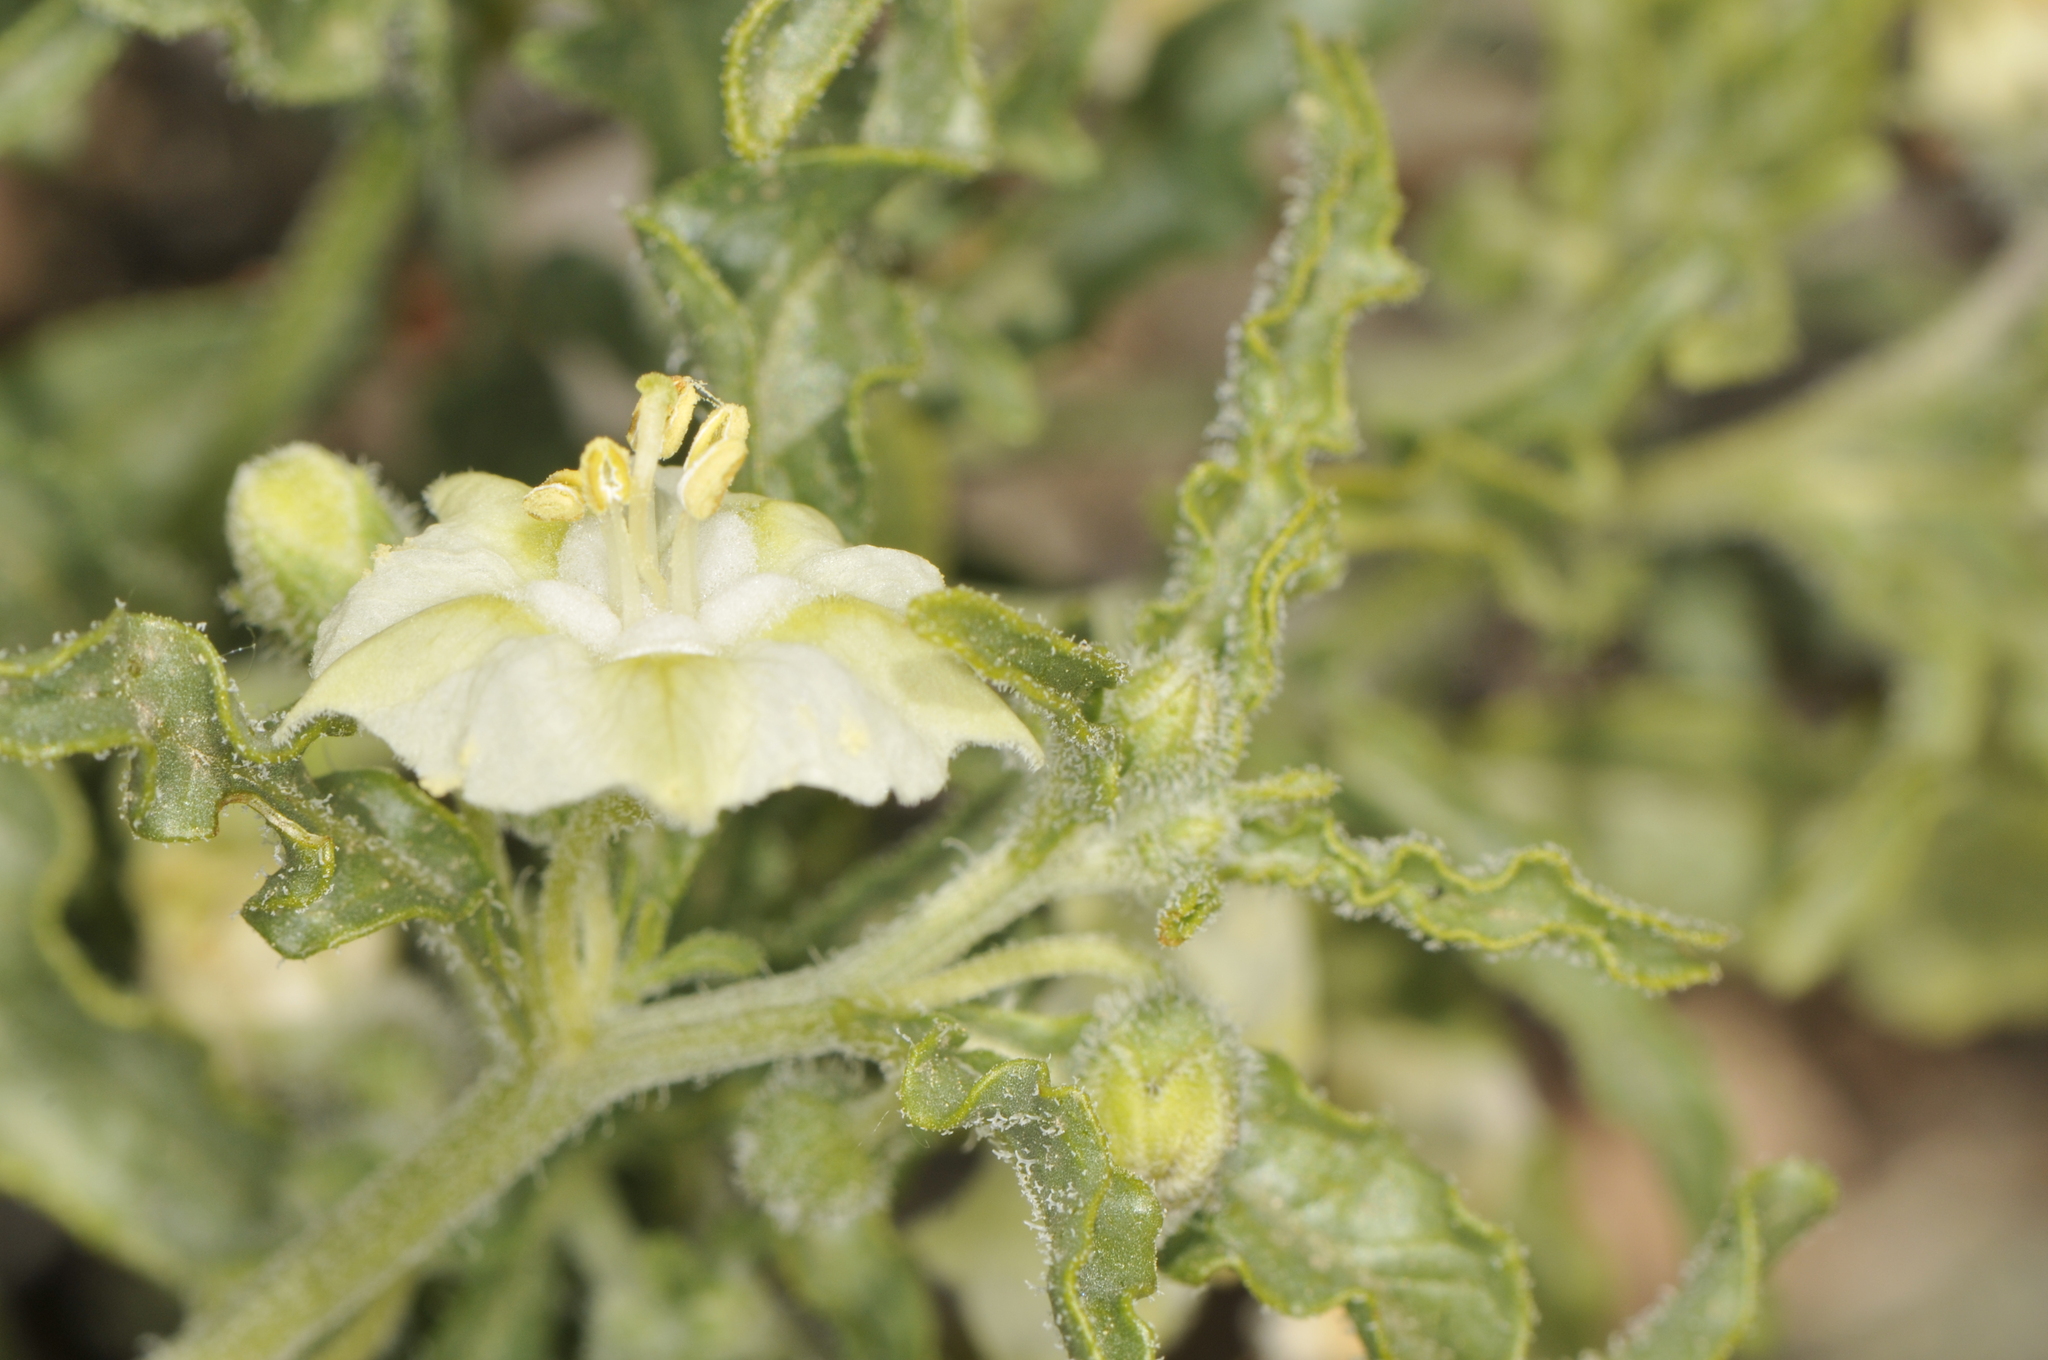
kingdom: Plantae
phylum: Tracheophyta
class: Magnoliopsida
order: Solanales
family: Solanaceae
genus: Chamaesaracha
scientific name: Chamaesaracha coronopus
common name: Smooth chamaesaracha
